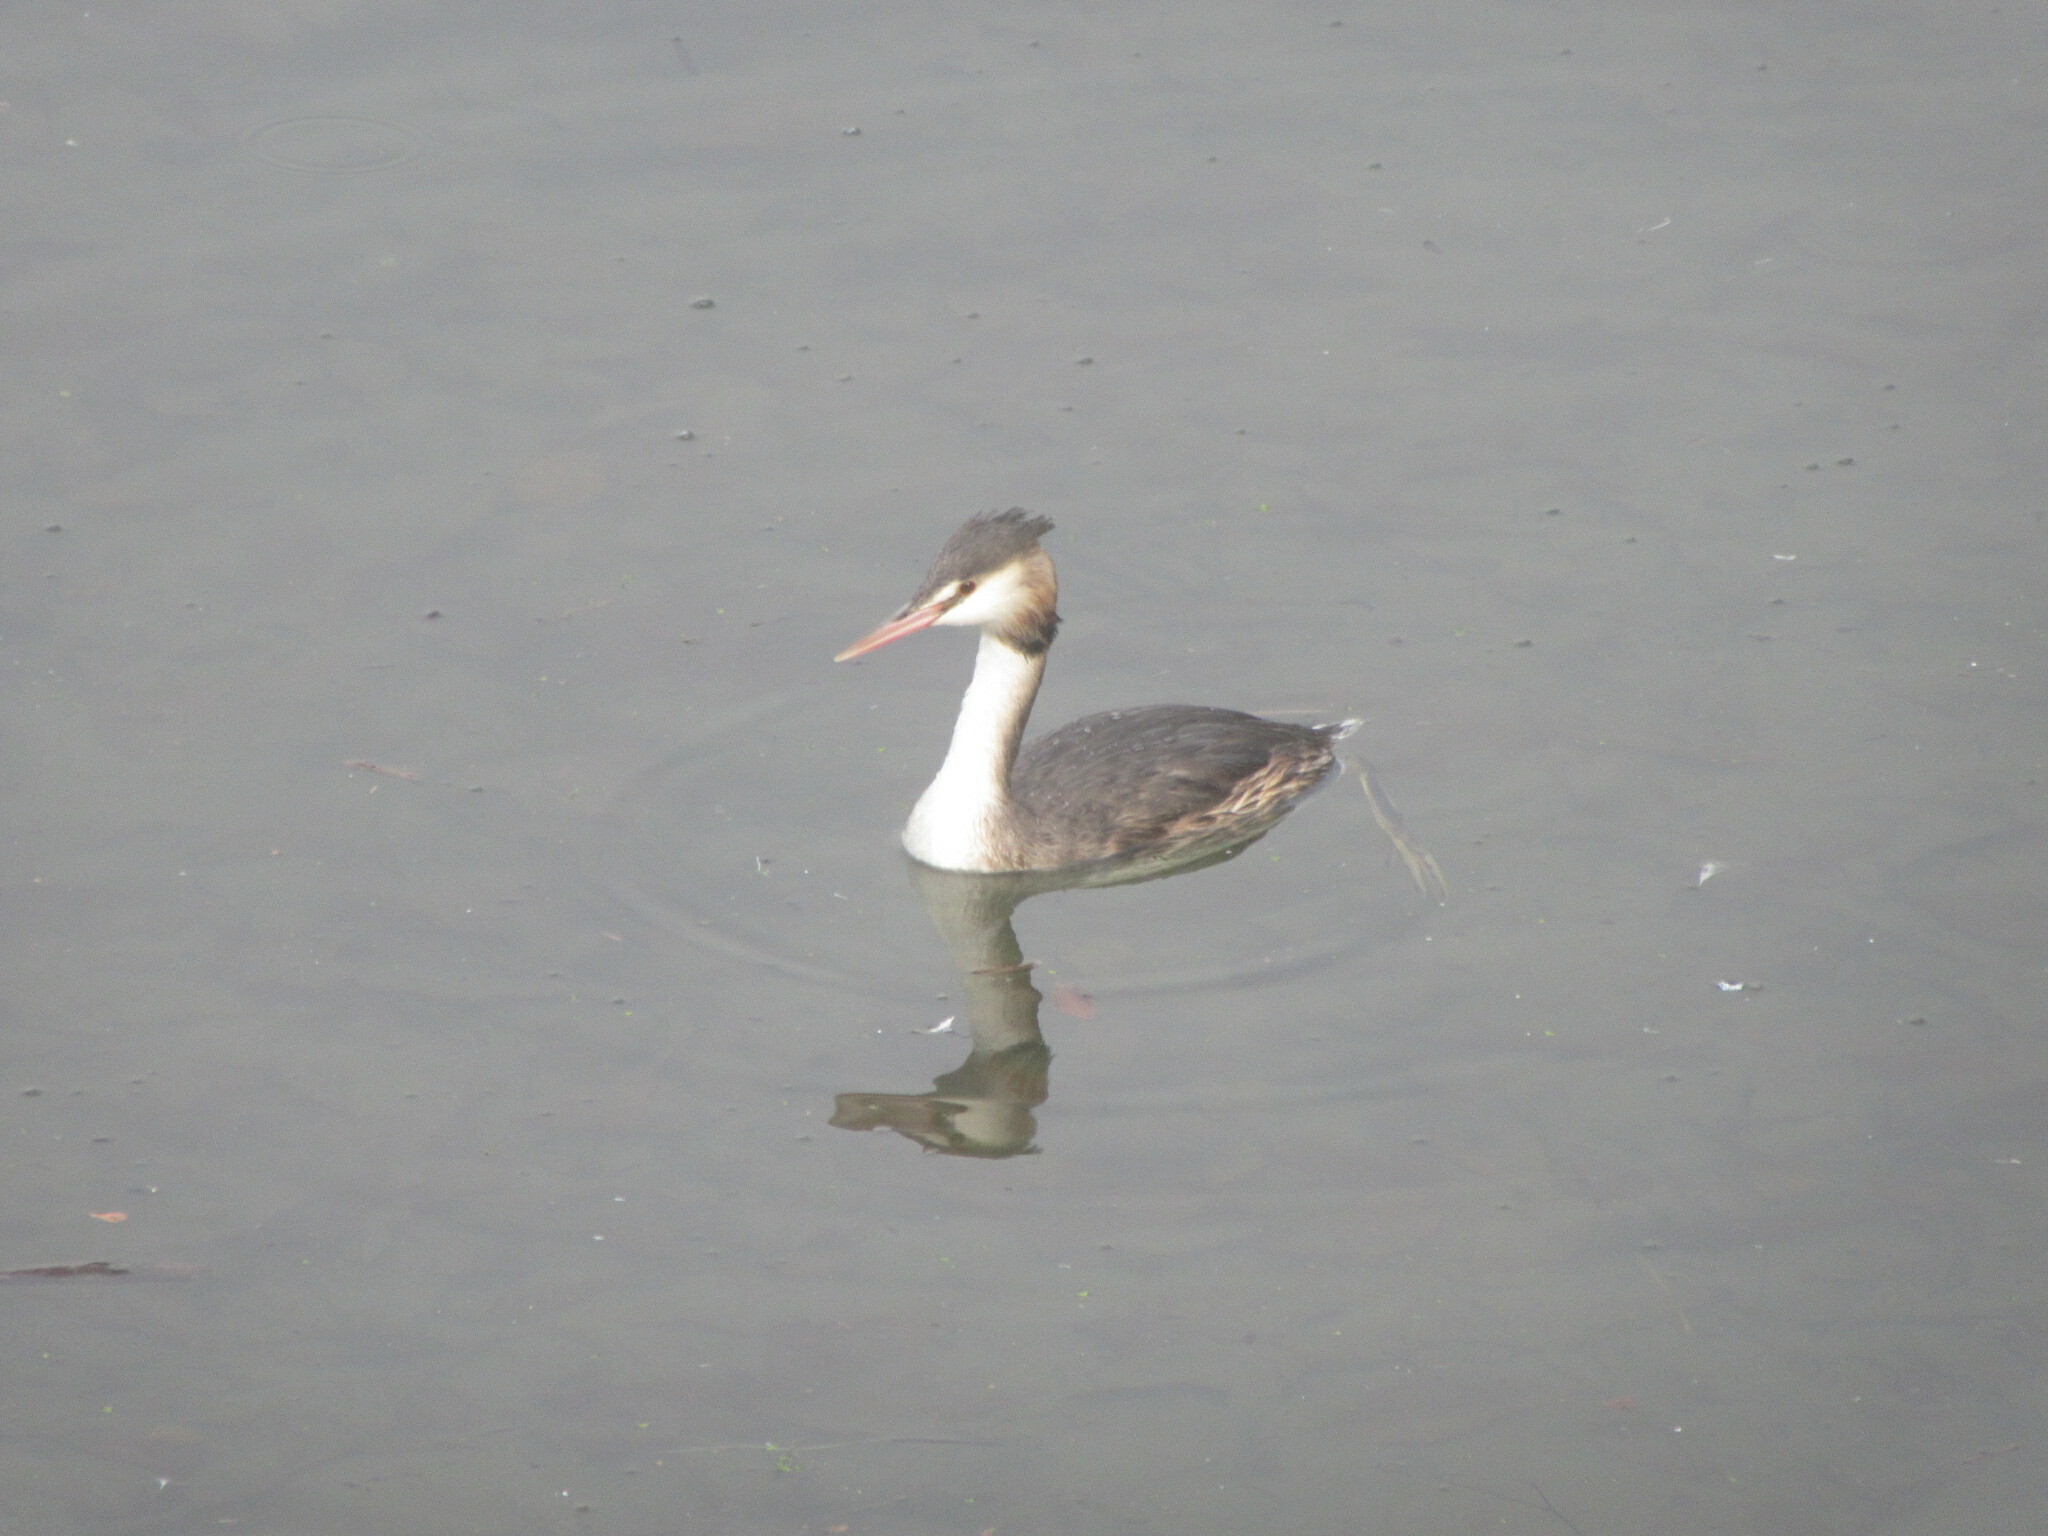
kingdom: Animalia
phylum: Chordata
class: Aves
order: Podicipediformes
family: Podicipedidae
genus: Podiceps
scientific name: Podiceps cristatus
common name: Great crested grebe
